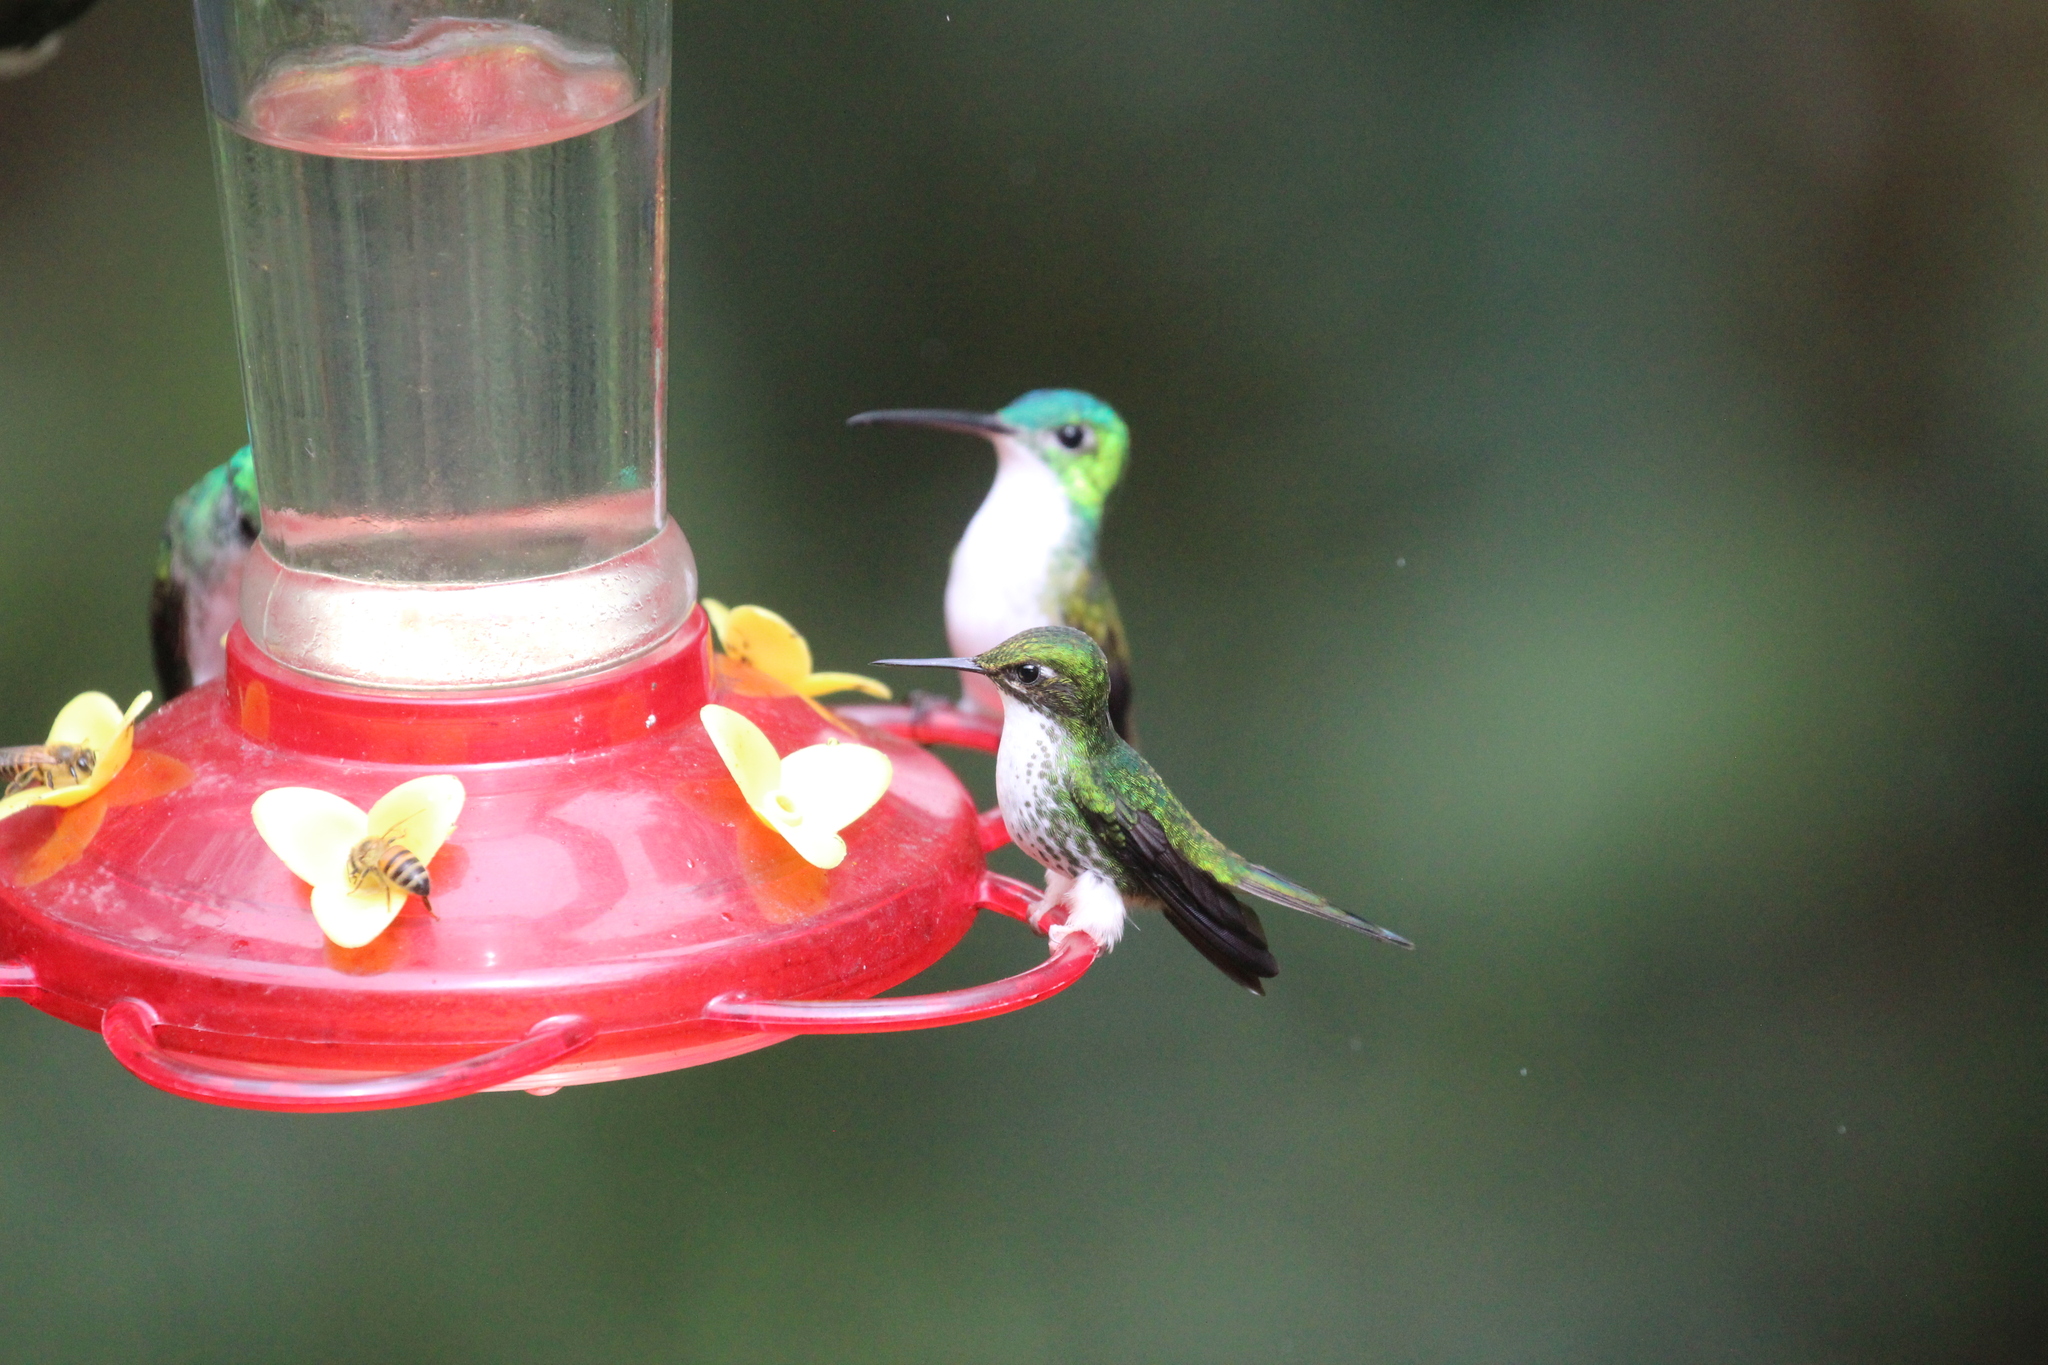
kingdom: Animalia
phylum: Chordata
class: Aves
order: Apodiformes
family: Trochilidae
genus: Ocreatus
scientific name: Ocreatus underwoodii
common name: Booted racket-tail
